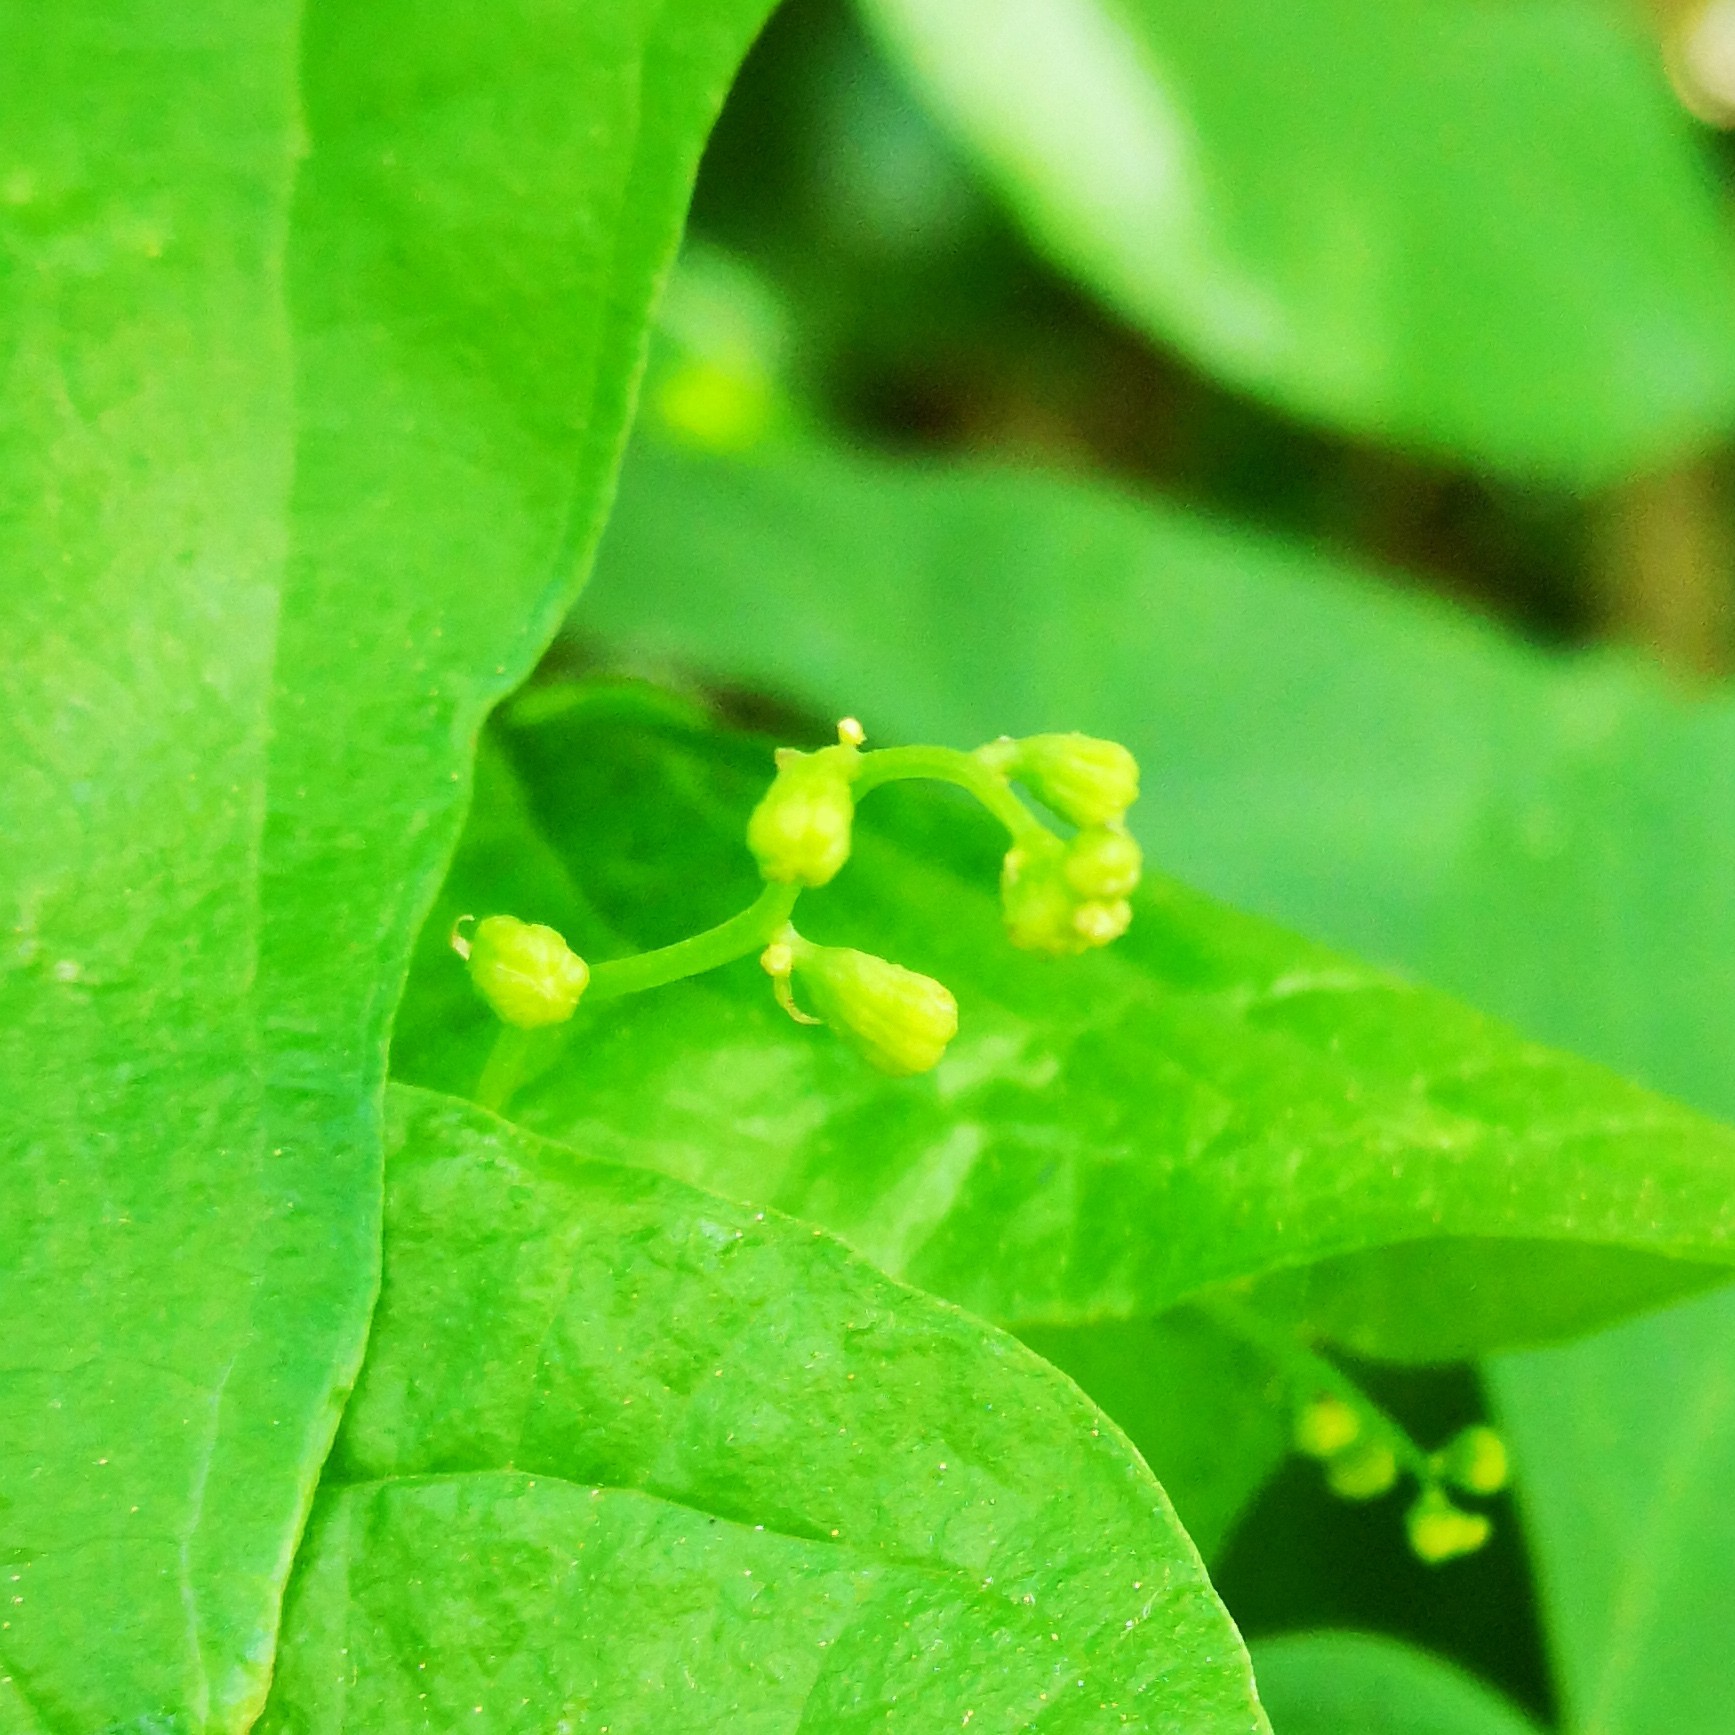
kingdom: Plantae
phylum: Tracheophyta
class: Liliopsida
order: Dioscoreales
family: Dioscoreaceae
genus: Dioscorea
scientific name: Dioscorea communis
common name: Black-bindweed
